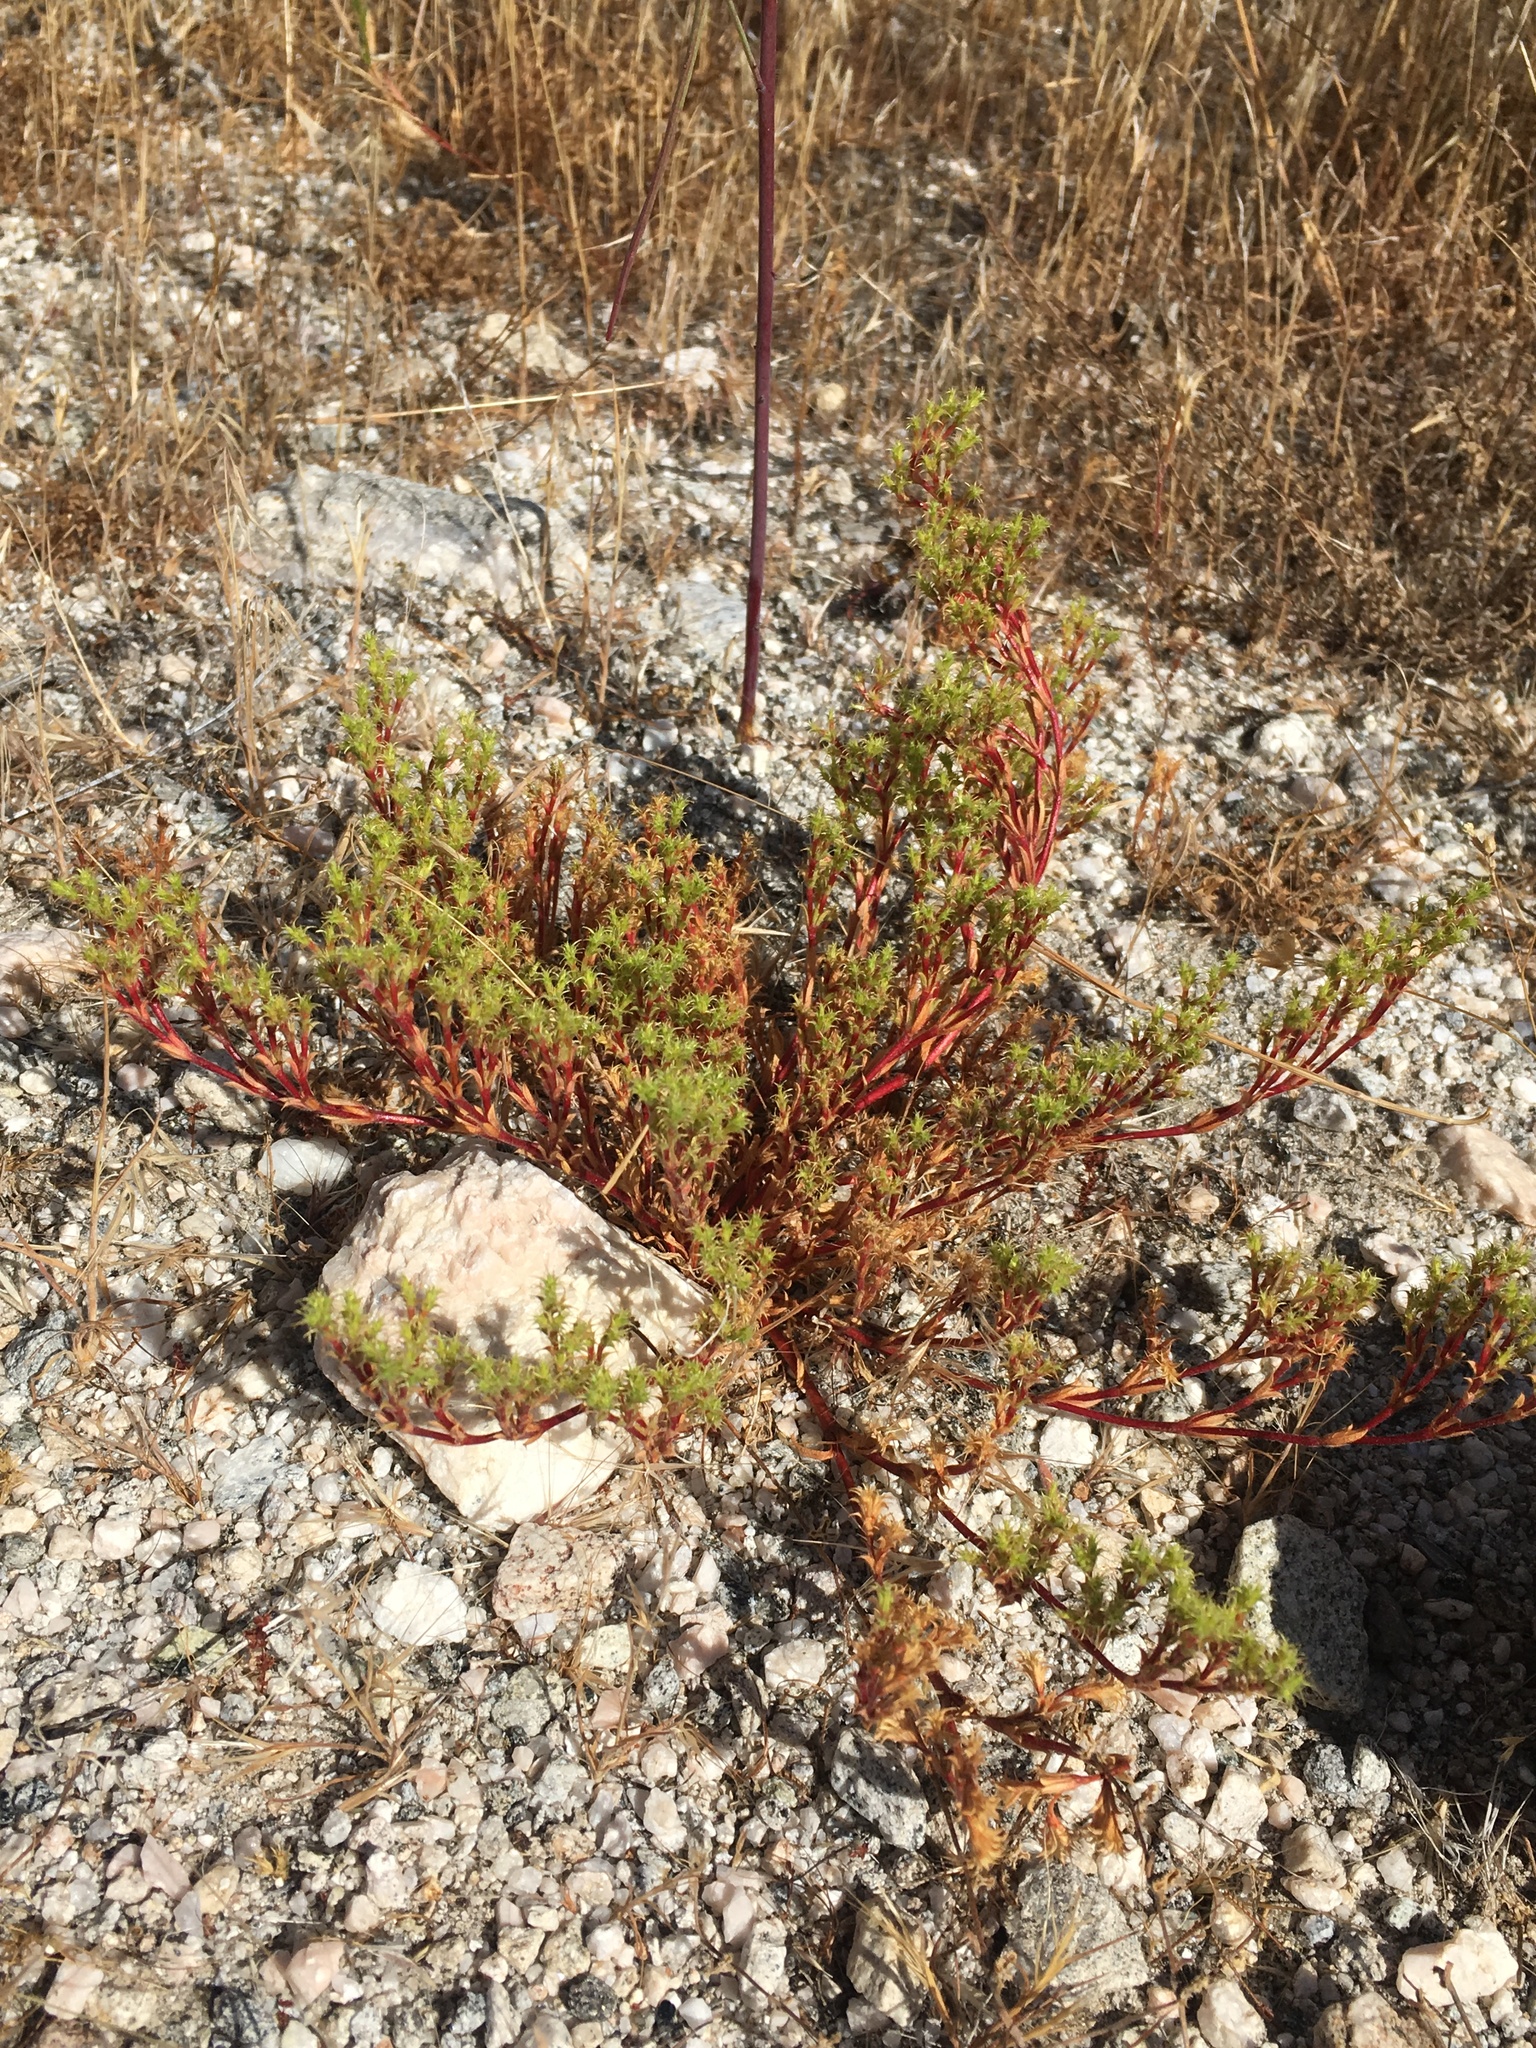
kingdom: Plantae
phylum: Tracheophyta
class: Magnoliopsida
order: Caryophyllales
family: Polygonaceae
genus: Lastarriaea
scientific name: Lastarriaea coriacea
